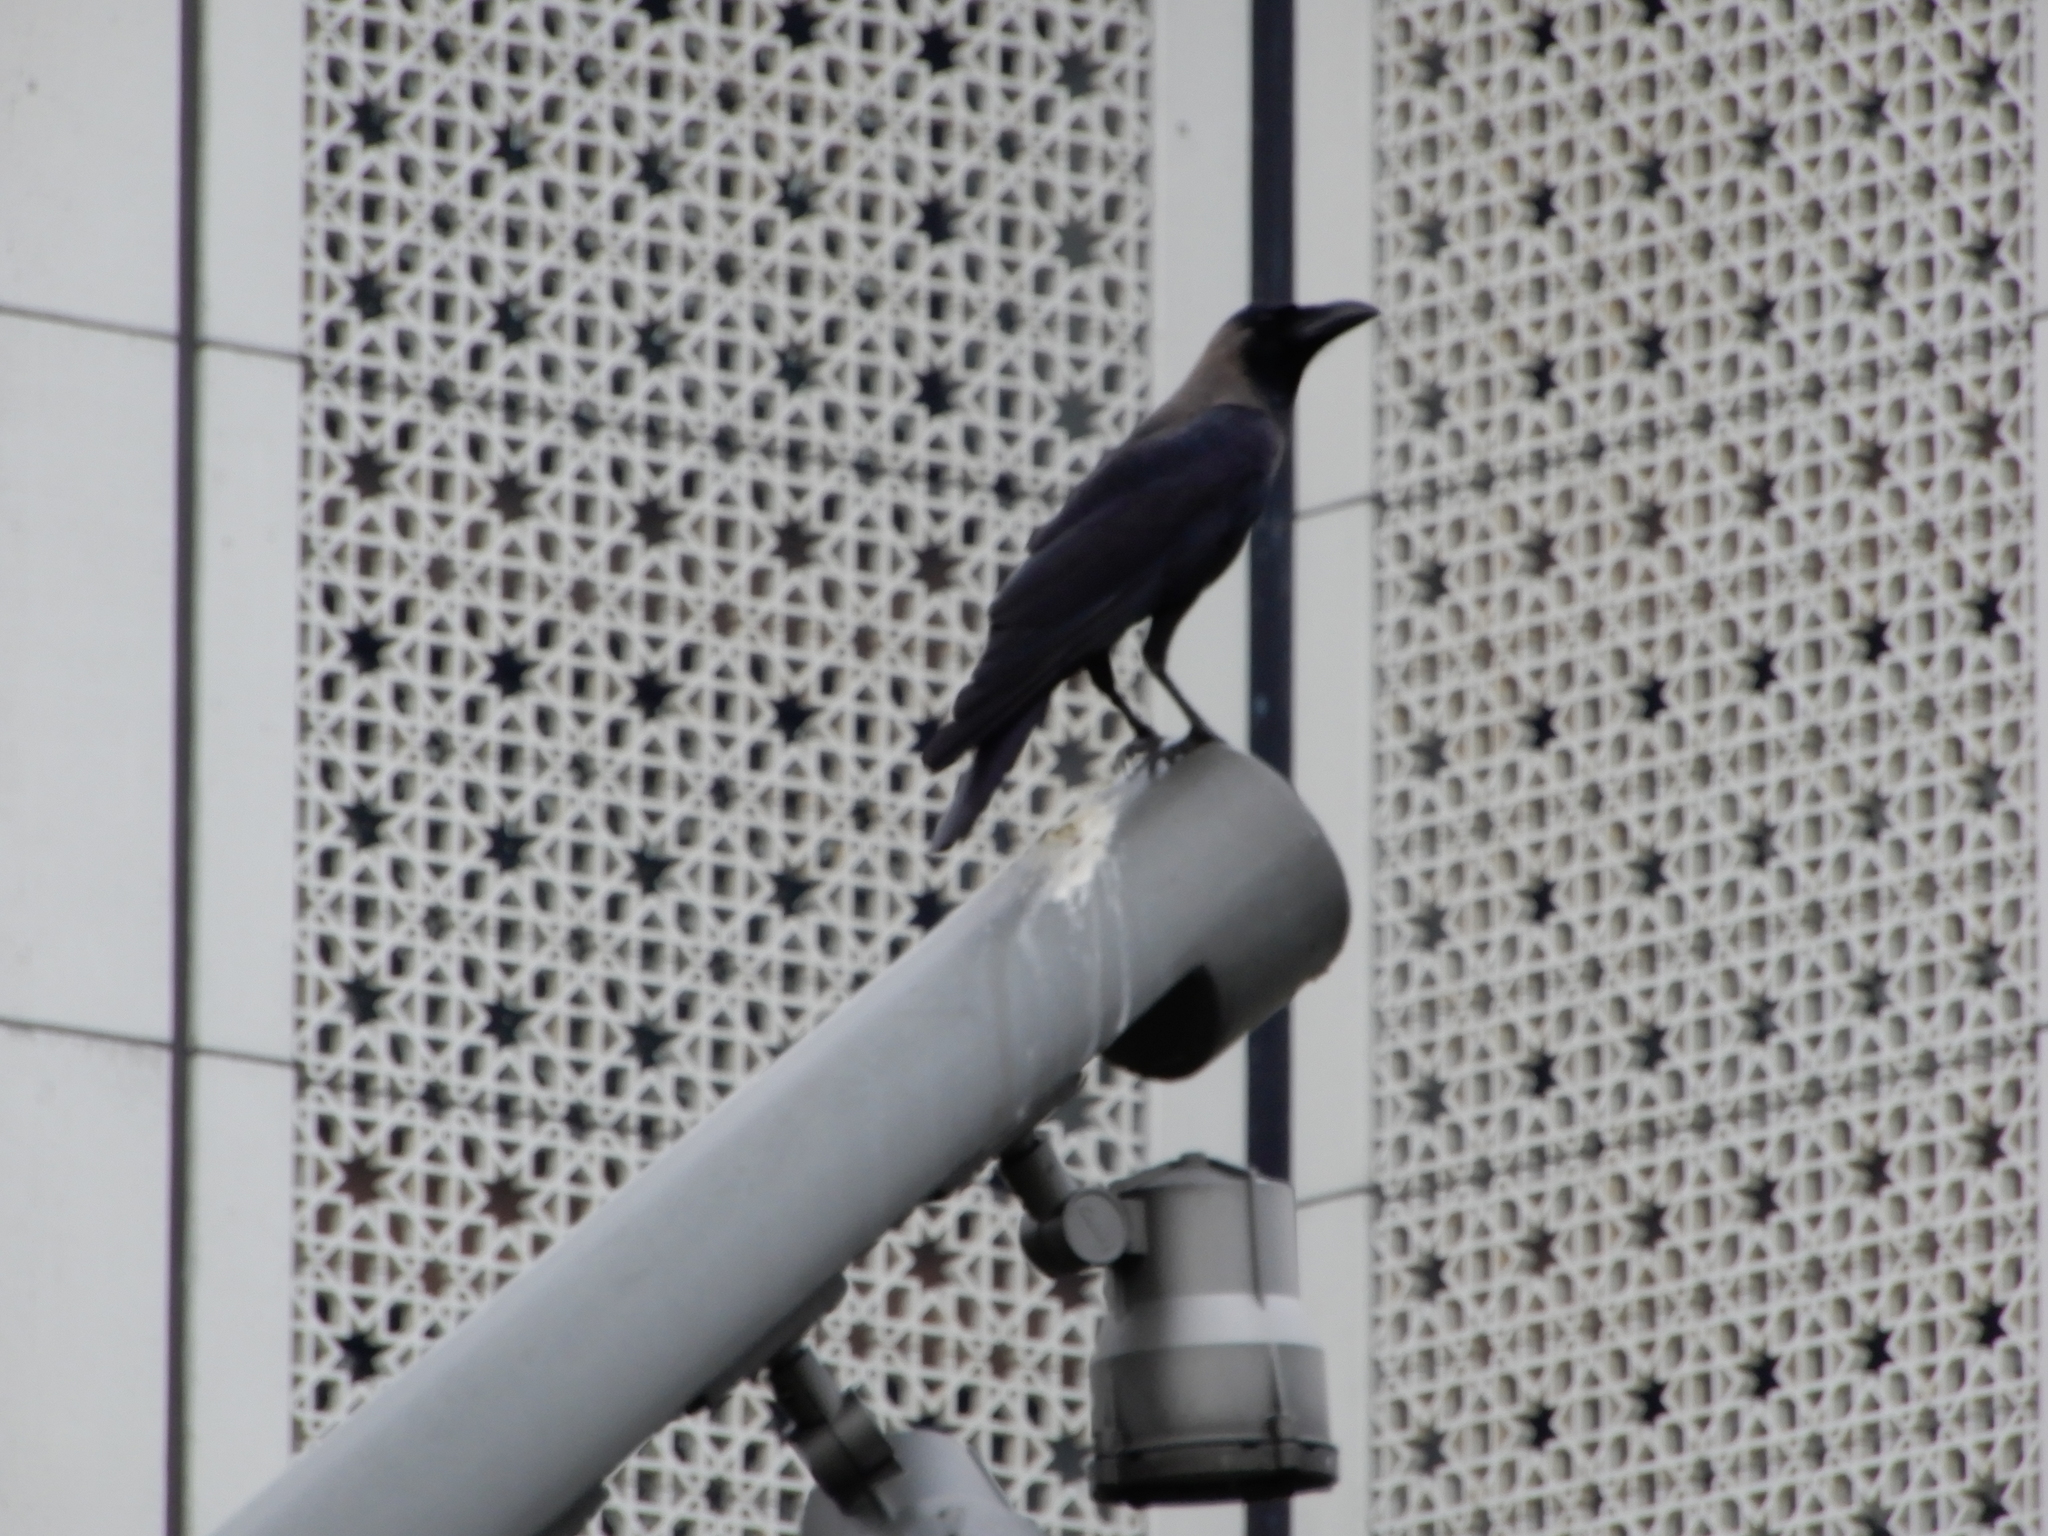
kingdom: Animalia
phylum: Chordata
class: Aves
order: Passeriformes
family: Corvidae
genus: Corvus
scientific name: Corvus splendens
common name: House crow
